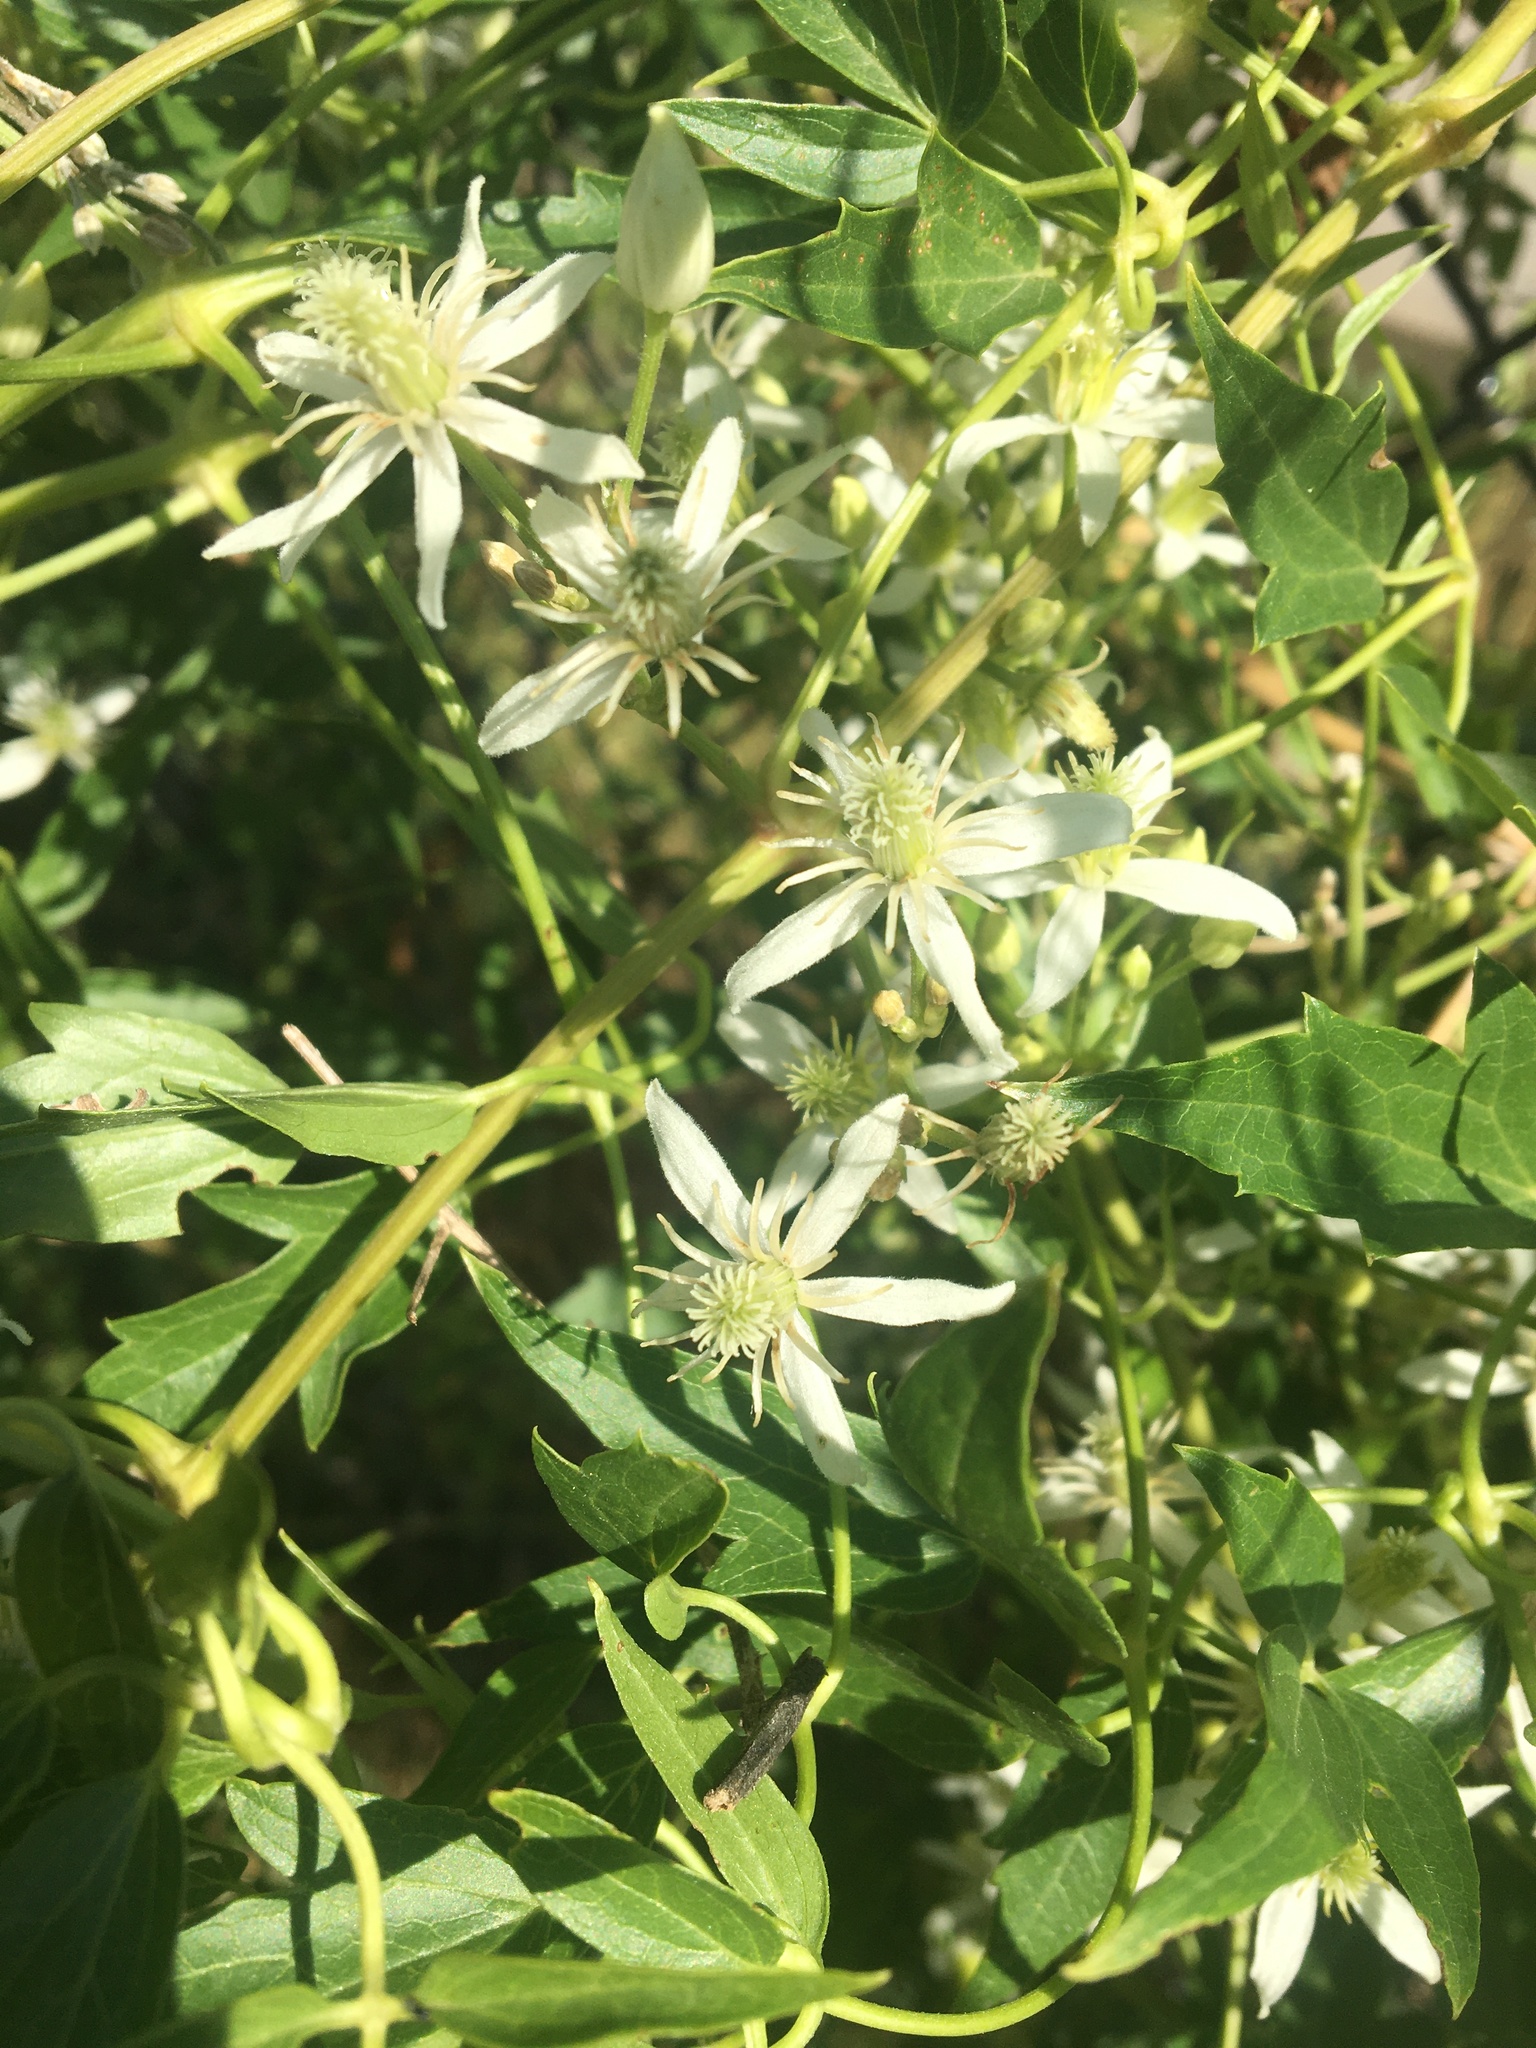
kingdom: Plantae
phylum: Tracheophyta
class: Magnoliopsida
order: Ranunculales
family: Ranunculaceae
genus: Clematis
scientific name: Clematis ligusticifolia
